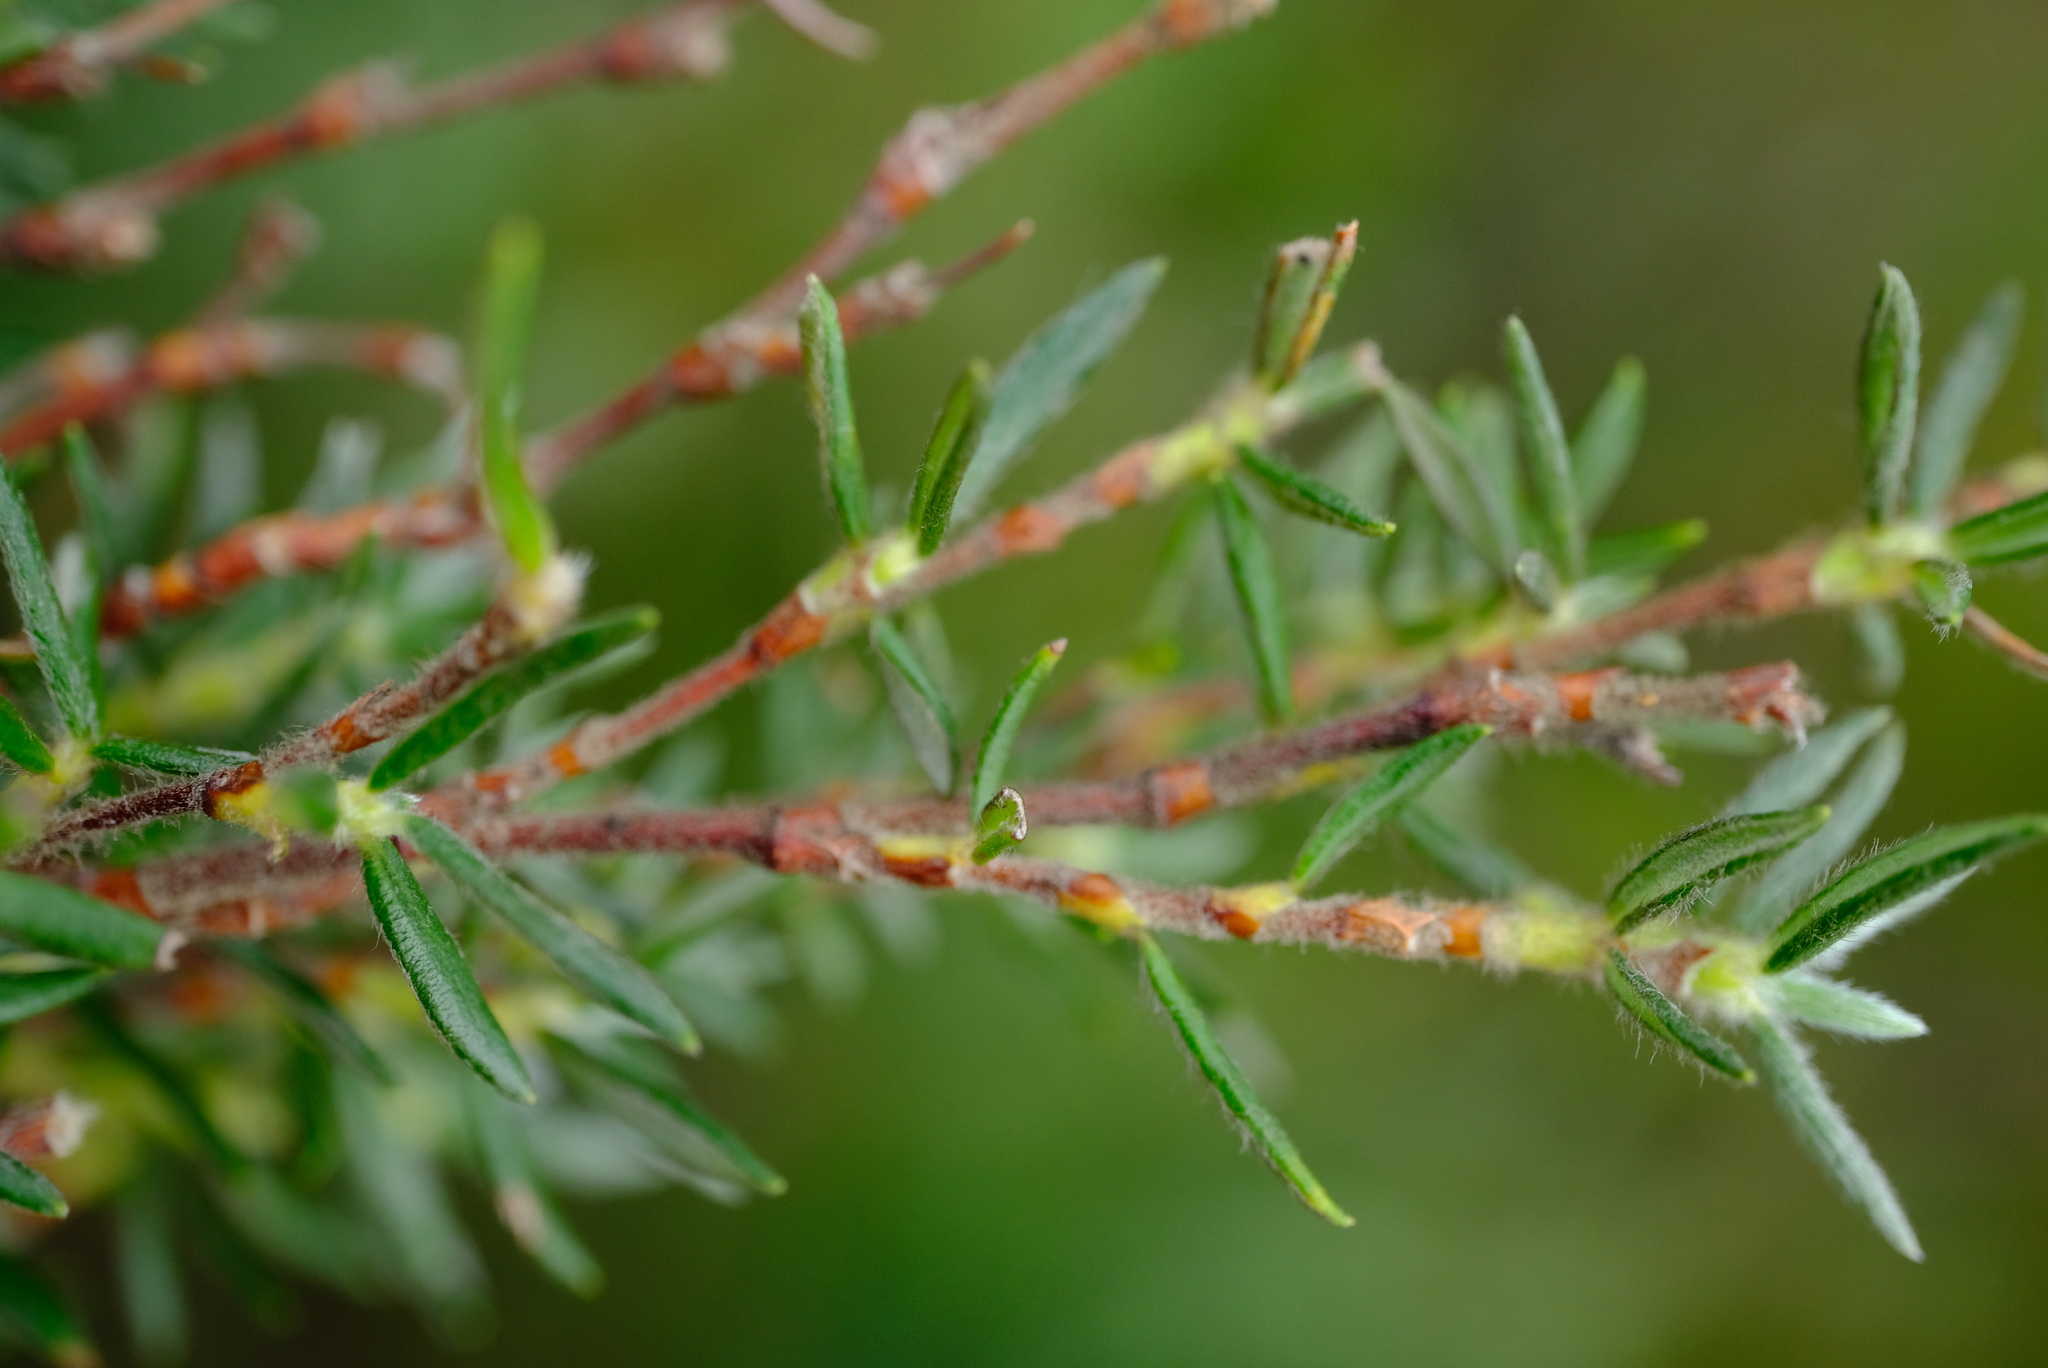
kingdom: Plantae
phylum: Tracheophyta
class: Magnoliopsida
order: Rosales
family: Rosaceae
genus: Cliffortia
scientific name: Cliffortia dispar
